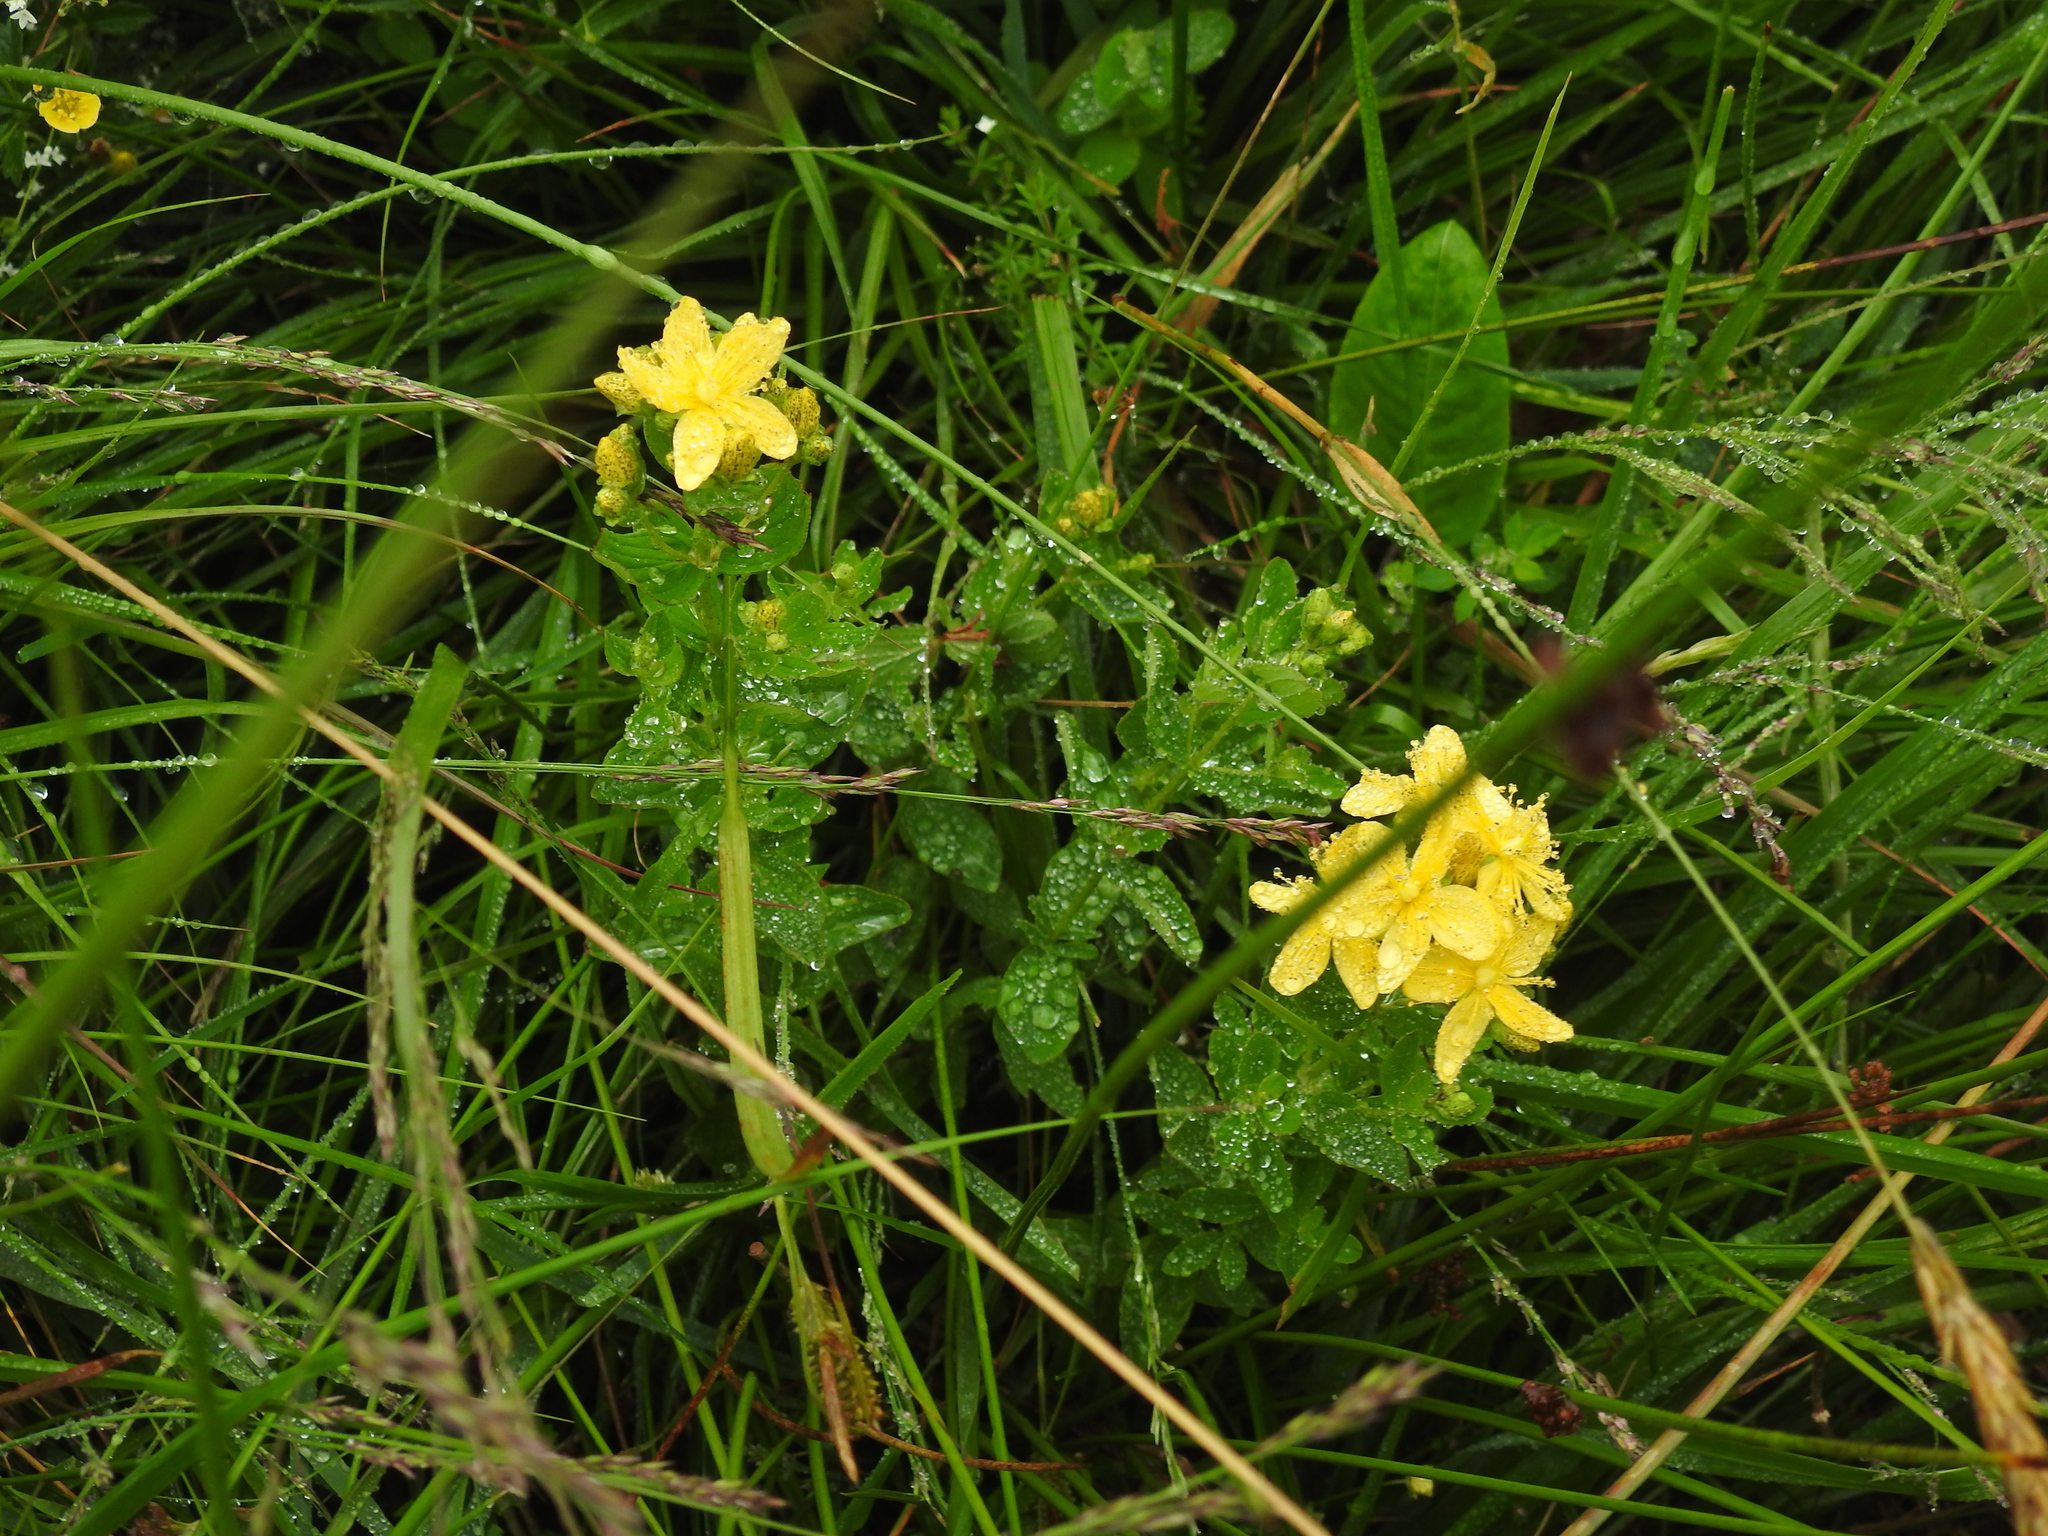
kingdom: Plantae
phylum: Tracheophyta
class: Magnoliopsida
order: Malpighiales
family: Hypericaceae
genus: Hypericum
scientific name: Hypericum maculatum
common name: Imperforate st. john's-wort
